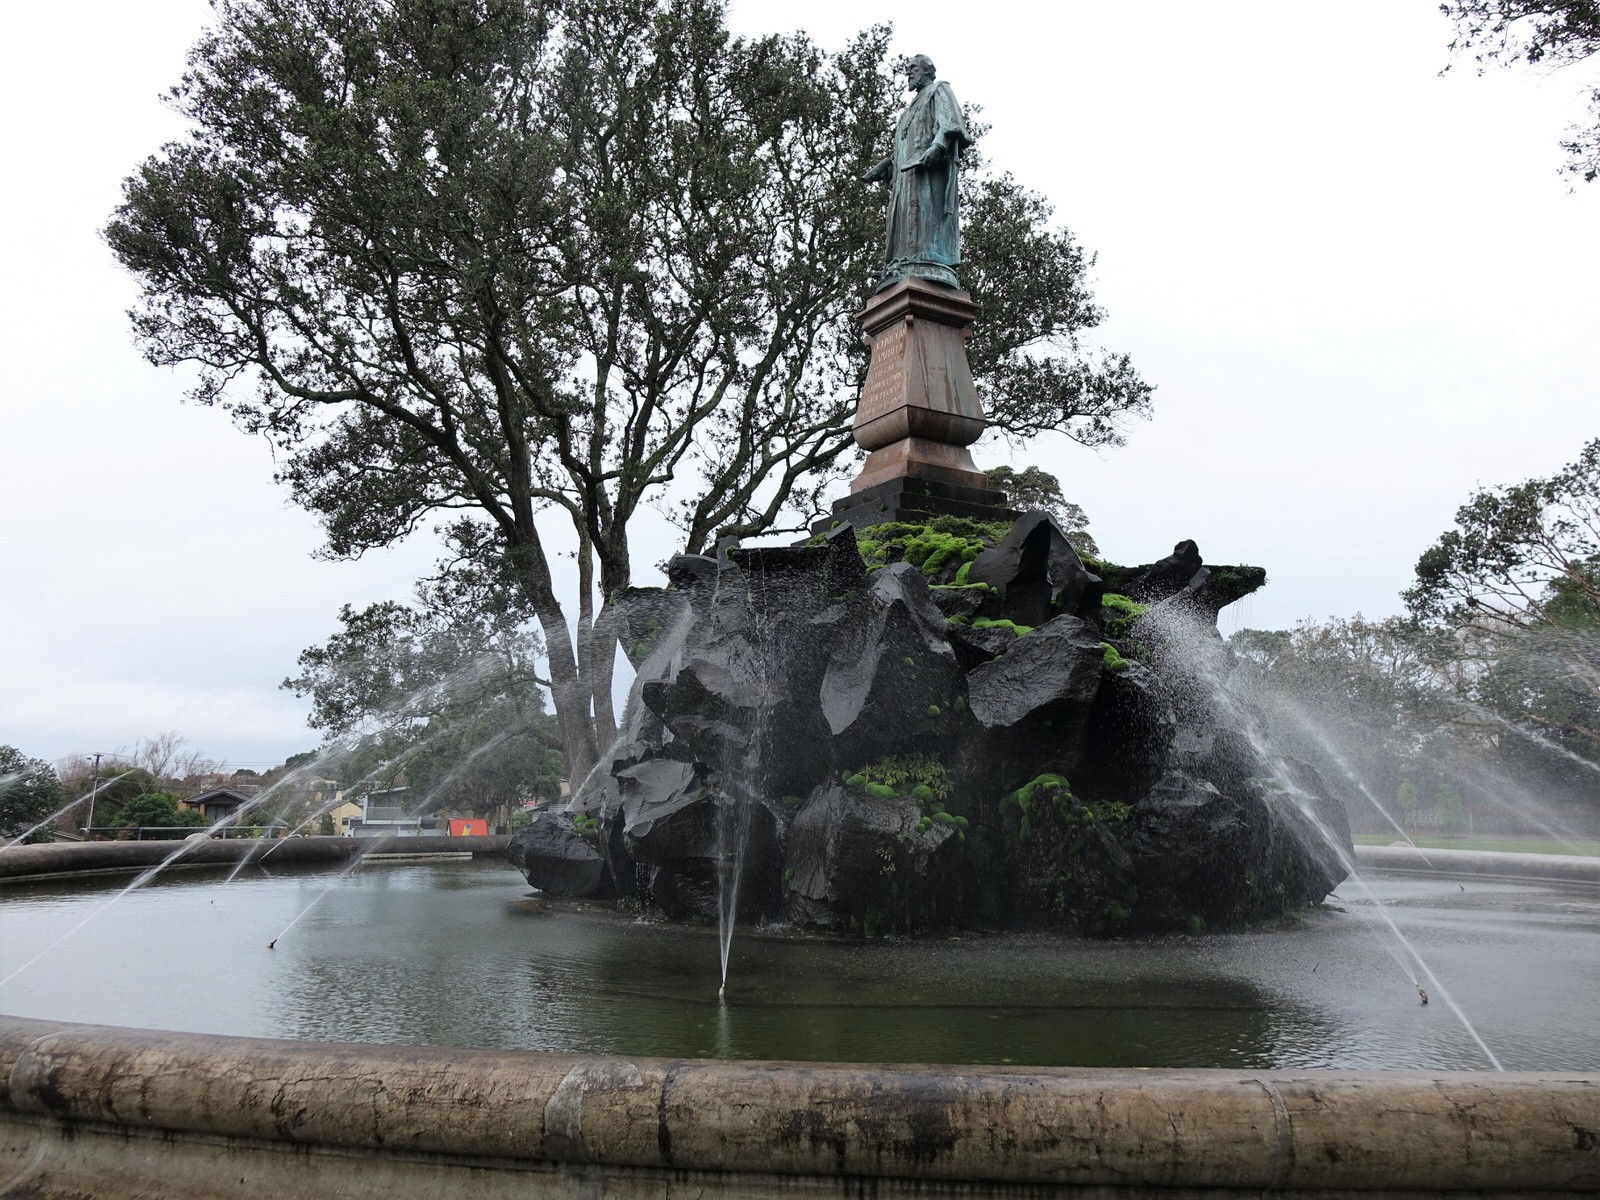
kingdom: Plantae
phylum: Tracheophyta
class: Magnoliopsida
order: Rosales
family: Urticaceae
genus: Elatostema
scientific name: Elatostema rugosum
